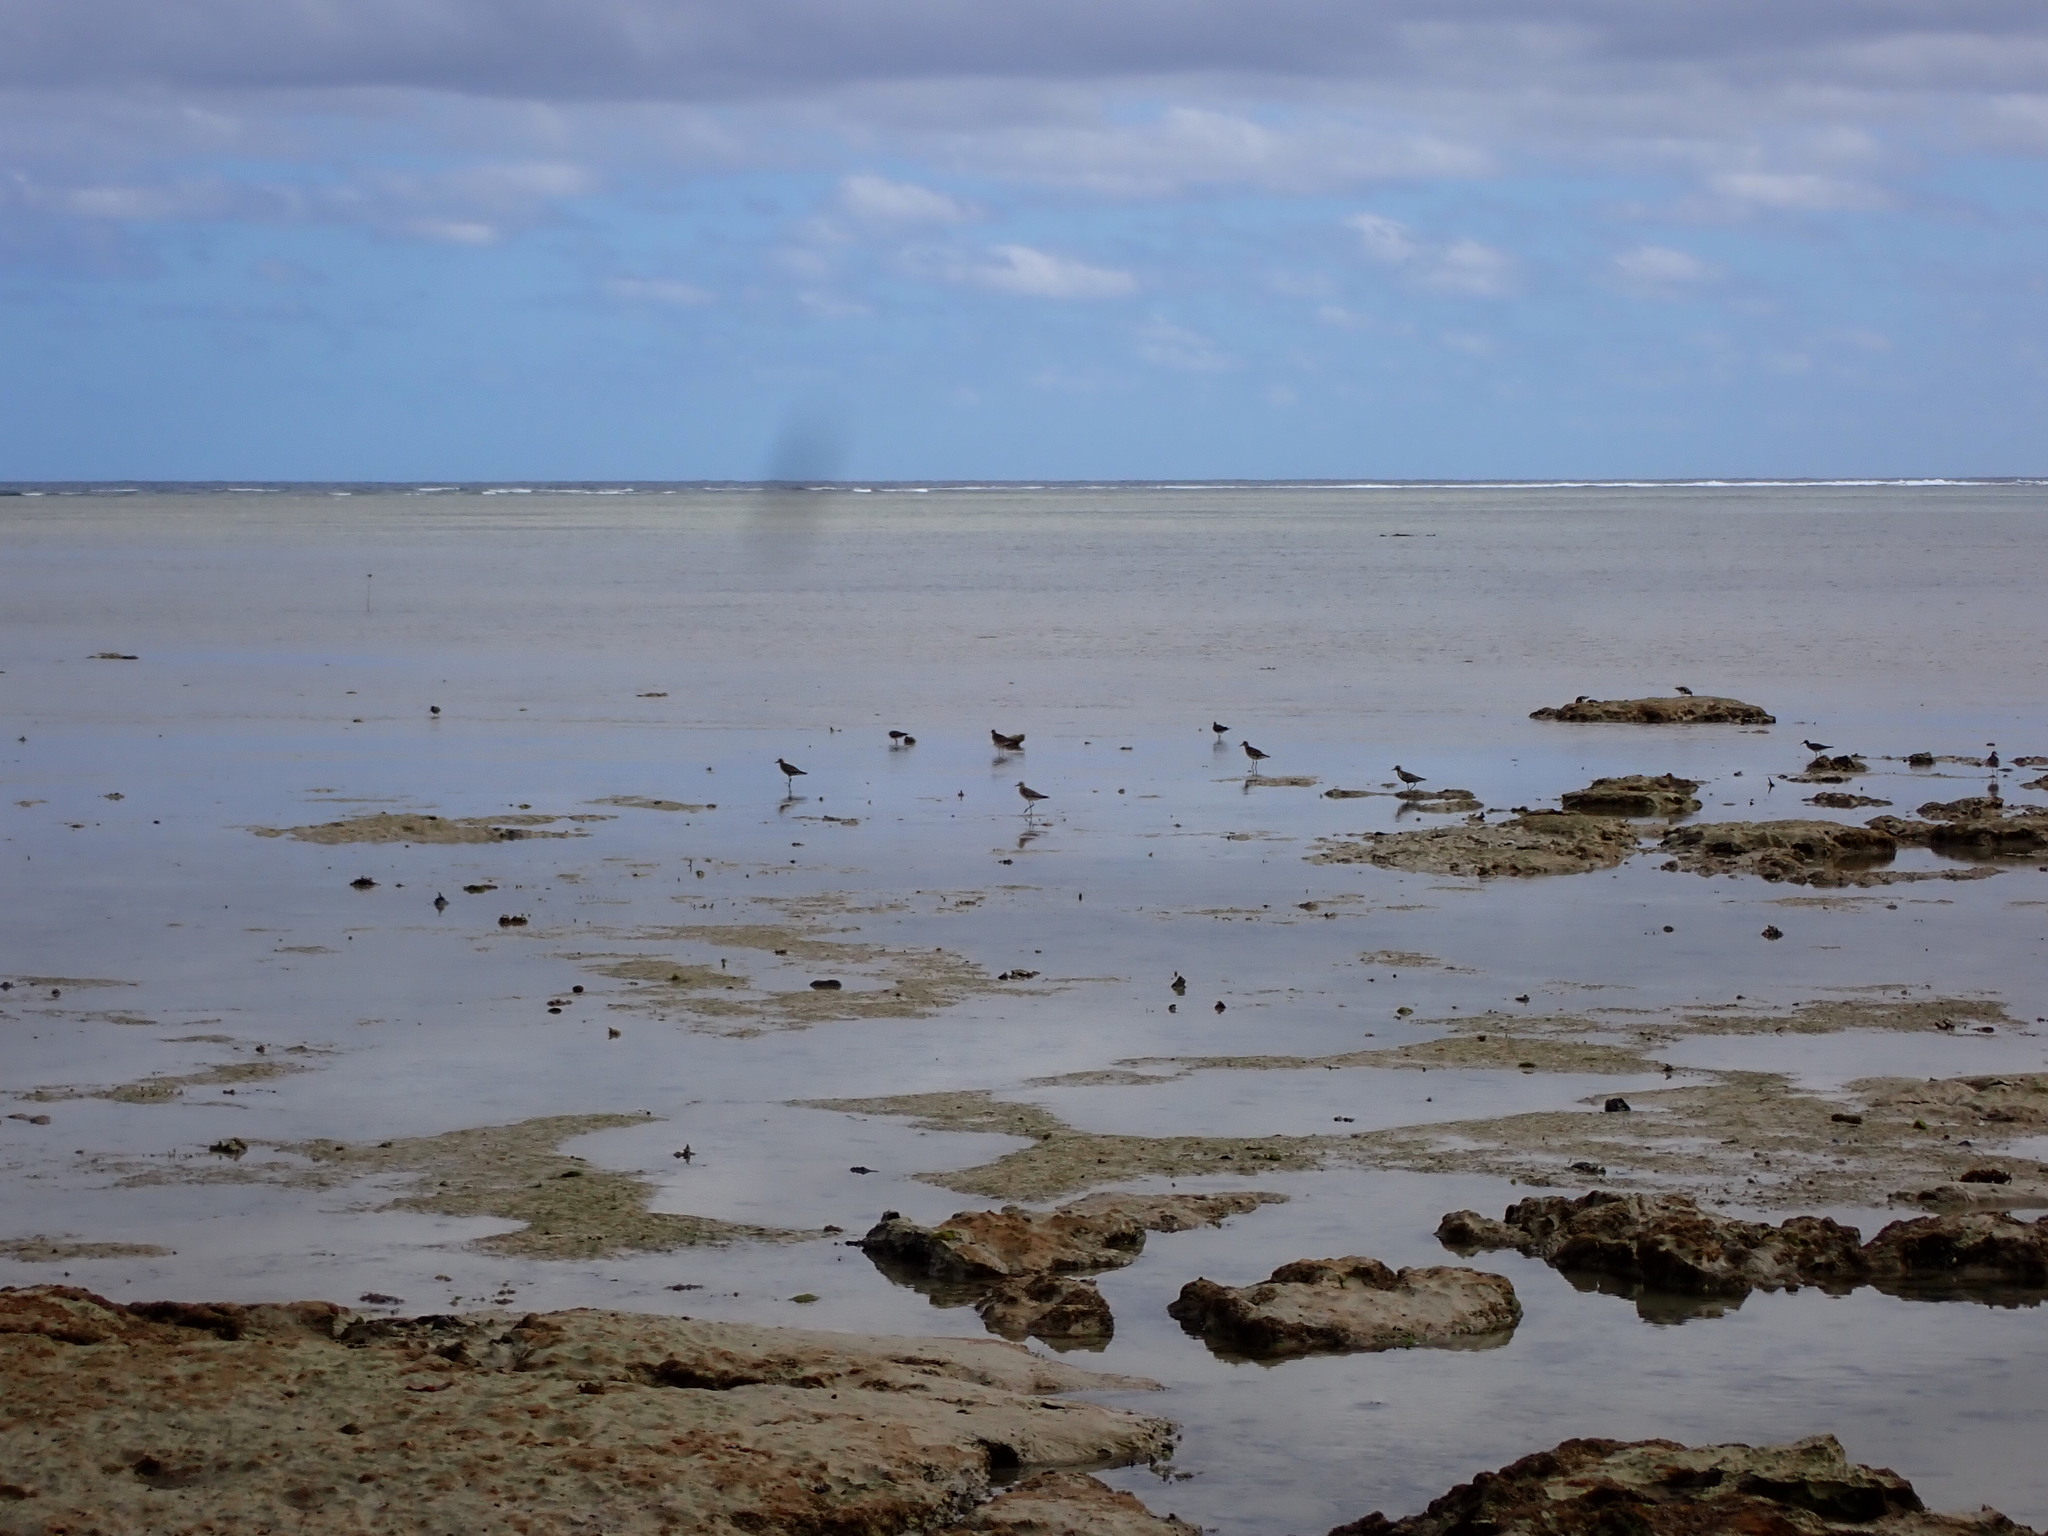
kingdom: Animalia
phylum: Chordata
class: Aves
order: Charadriiformes
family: Charadriidae
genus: Pluvialis
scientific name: Pluvialis fulva
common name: Pacific golden plover
